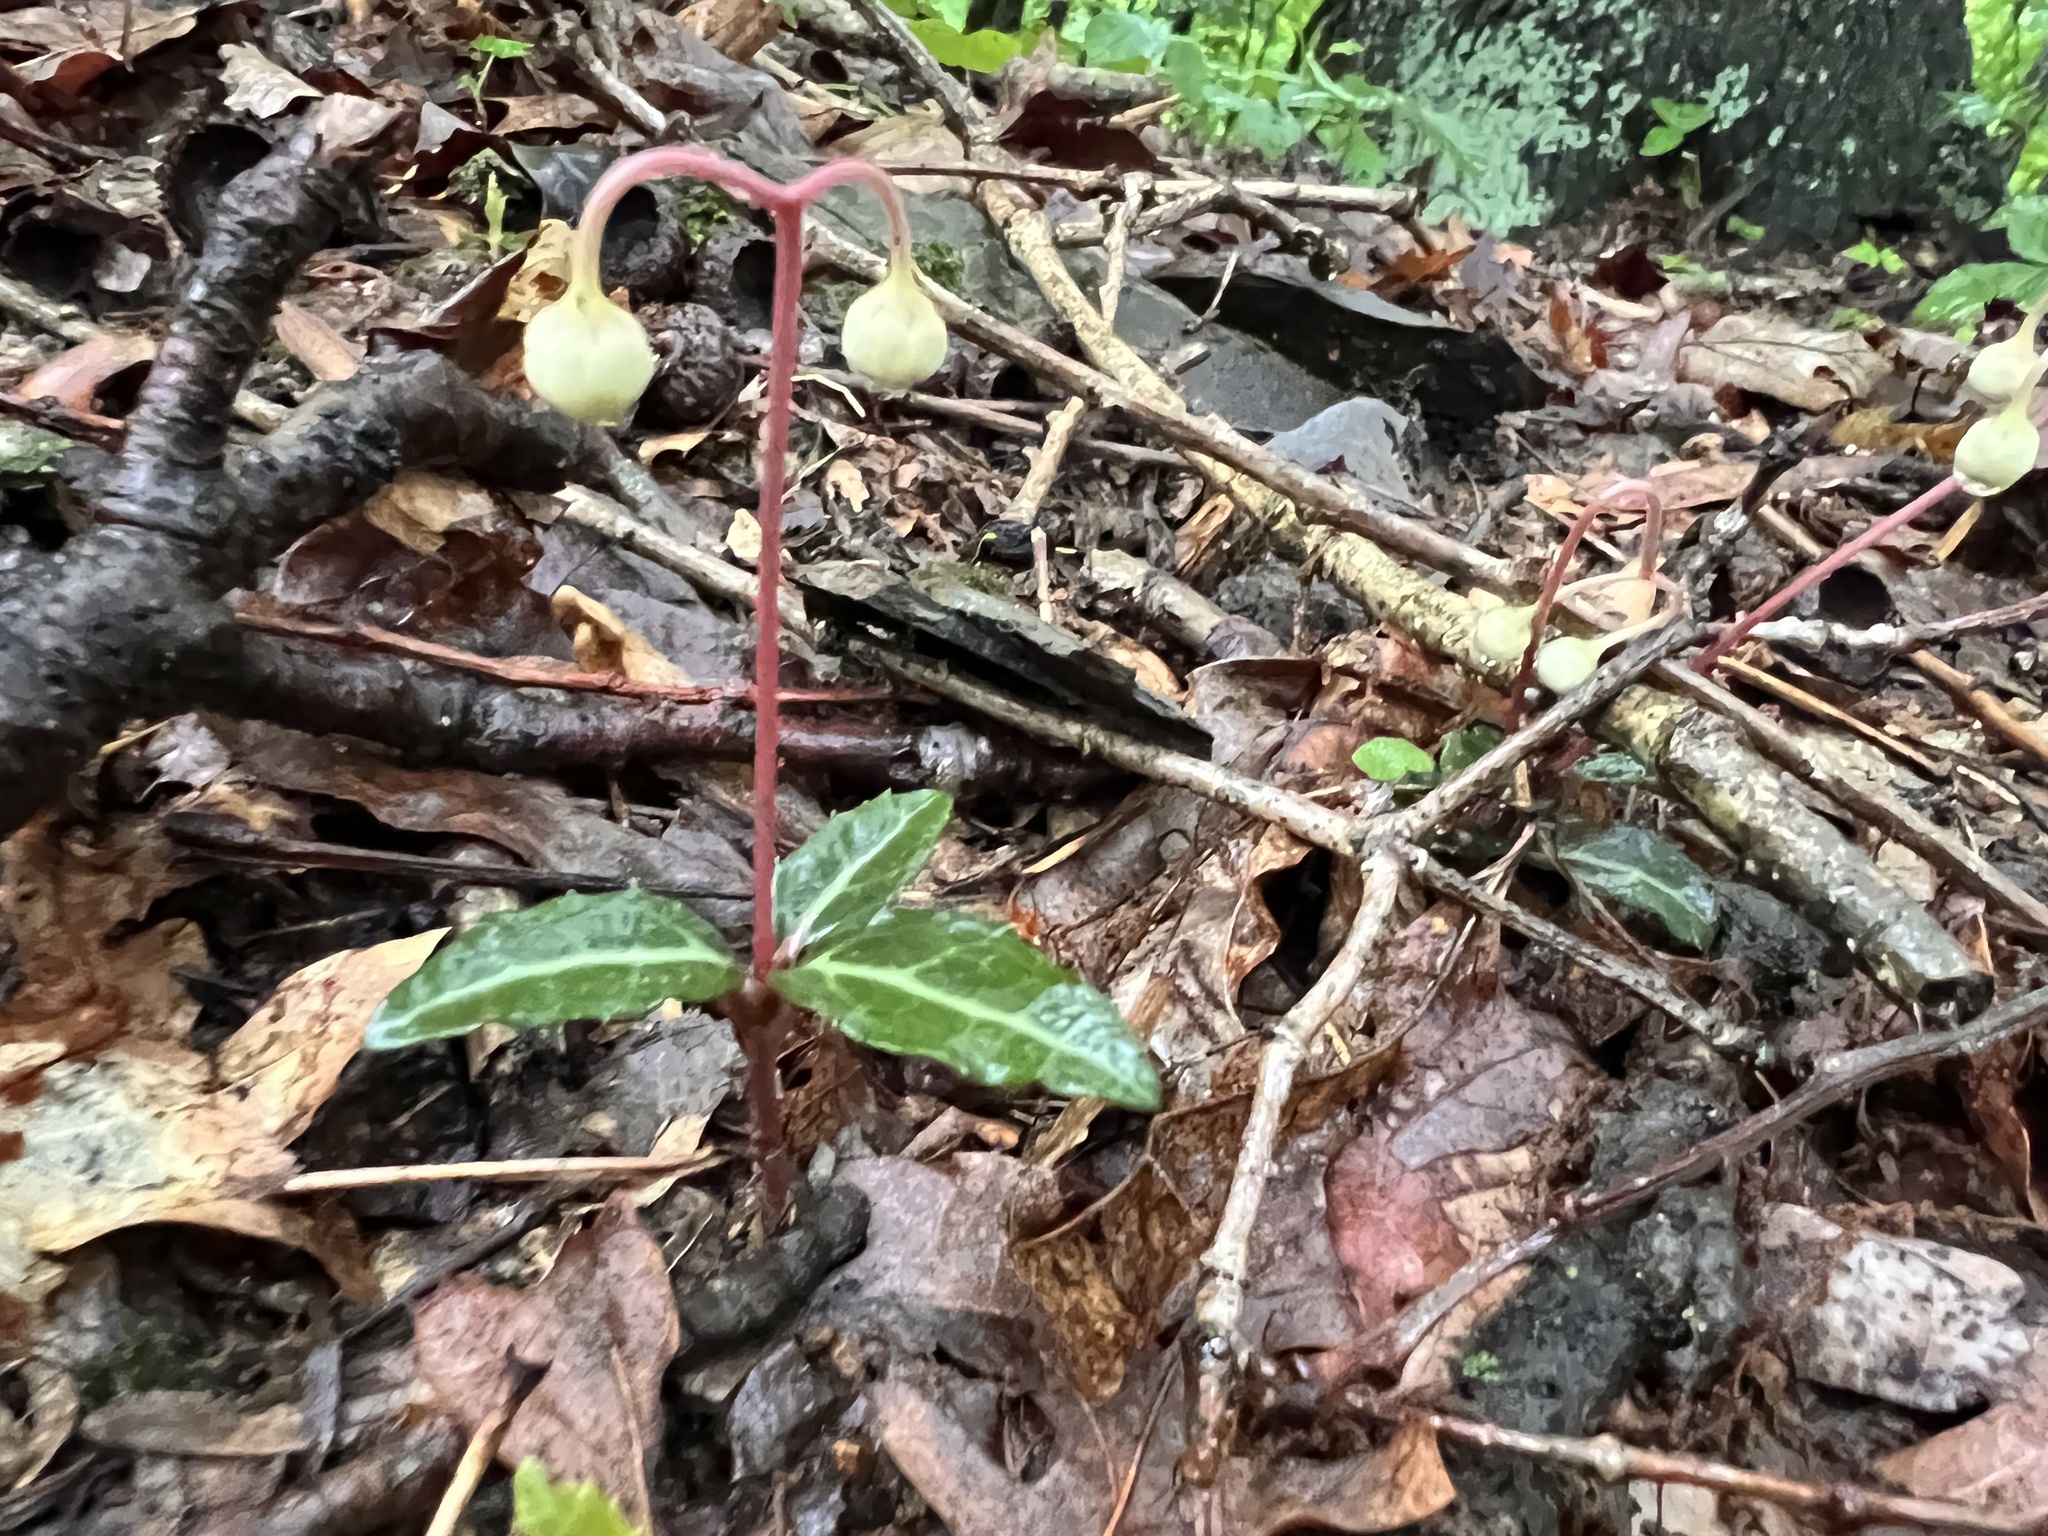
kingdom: Plantae
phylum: Tracheophyta
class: Magnoliopsida
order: Ericales
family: Ericaceae
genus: Chimaphila
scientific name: Chimaphila maculata
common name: Spotted pipsissewa
